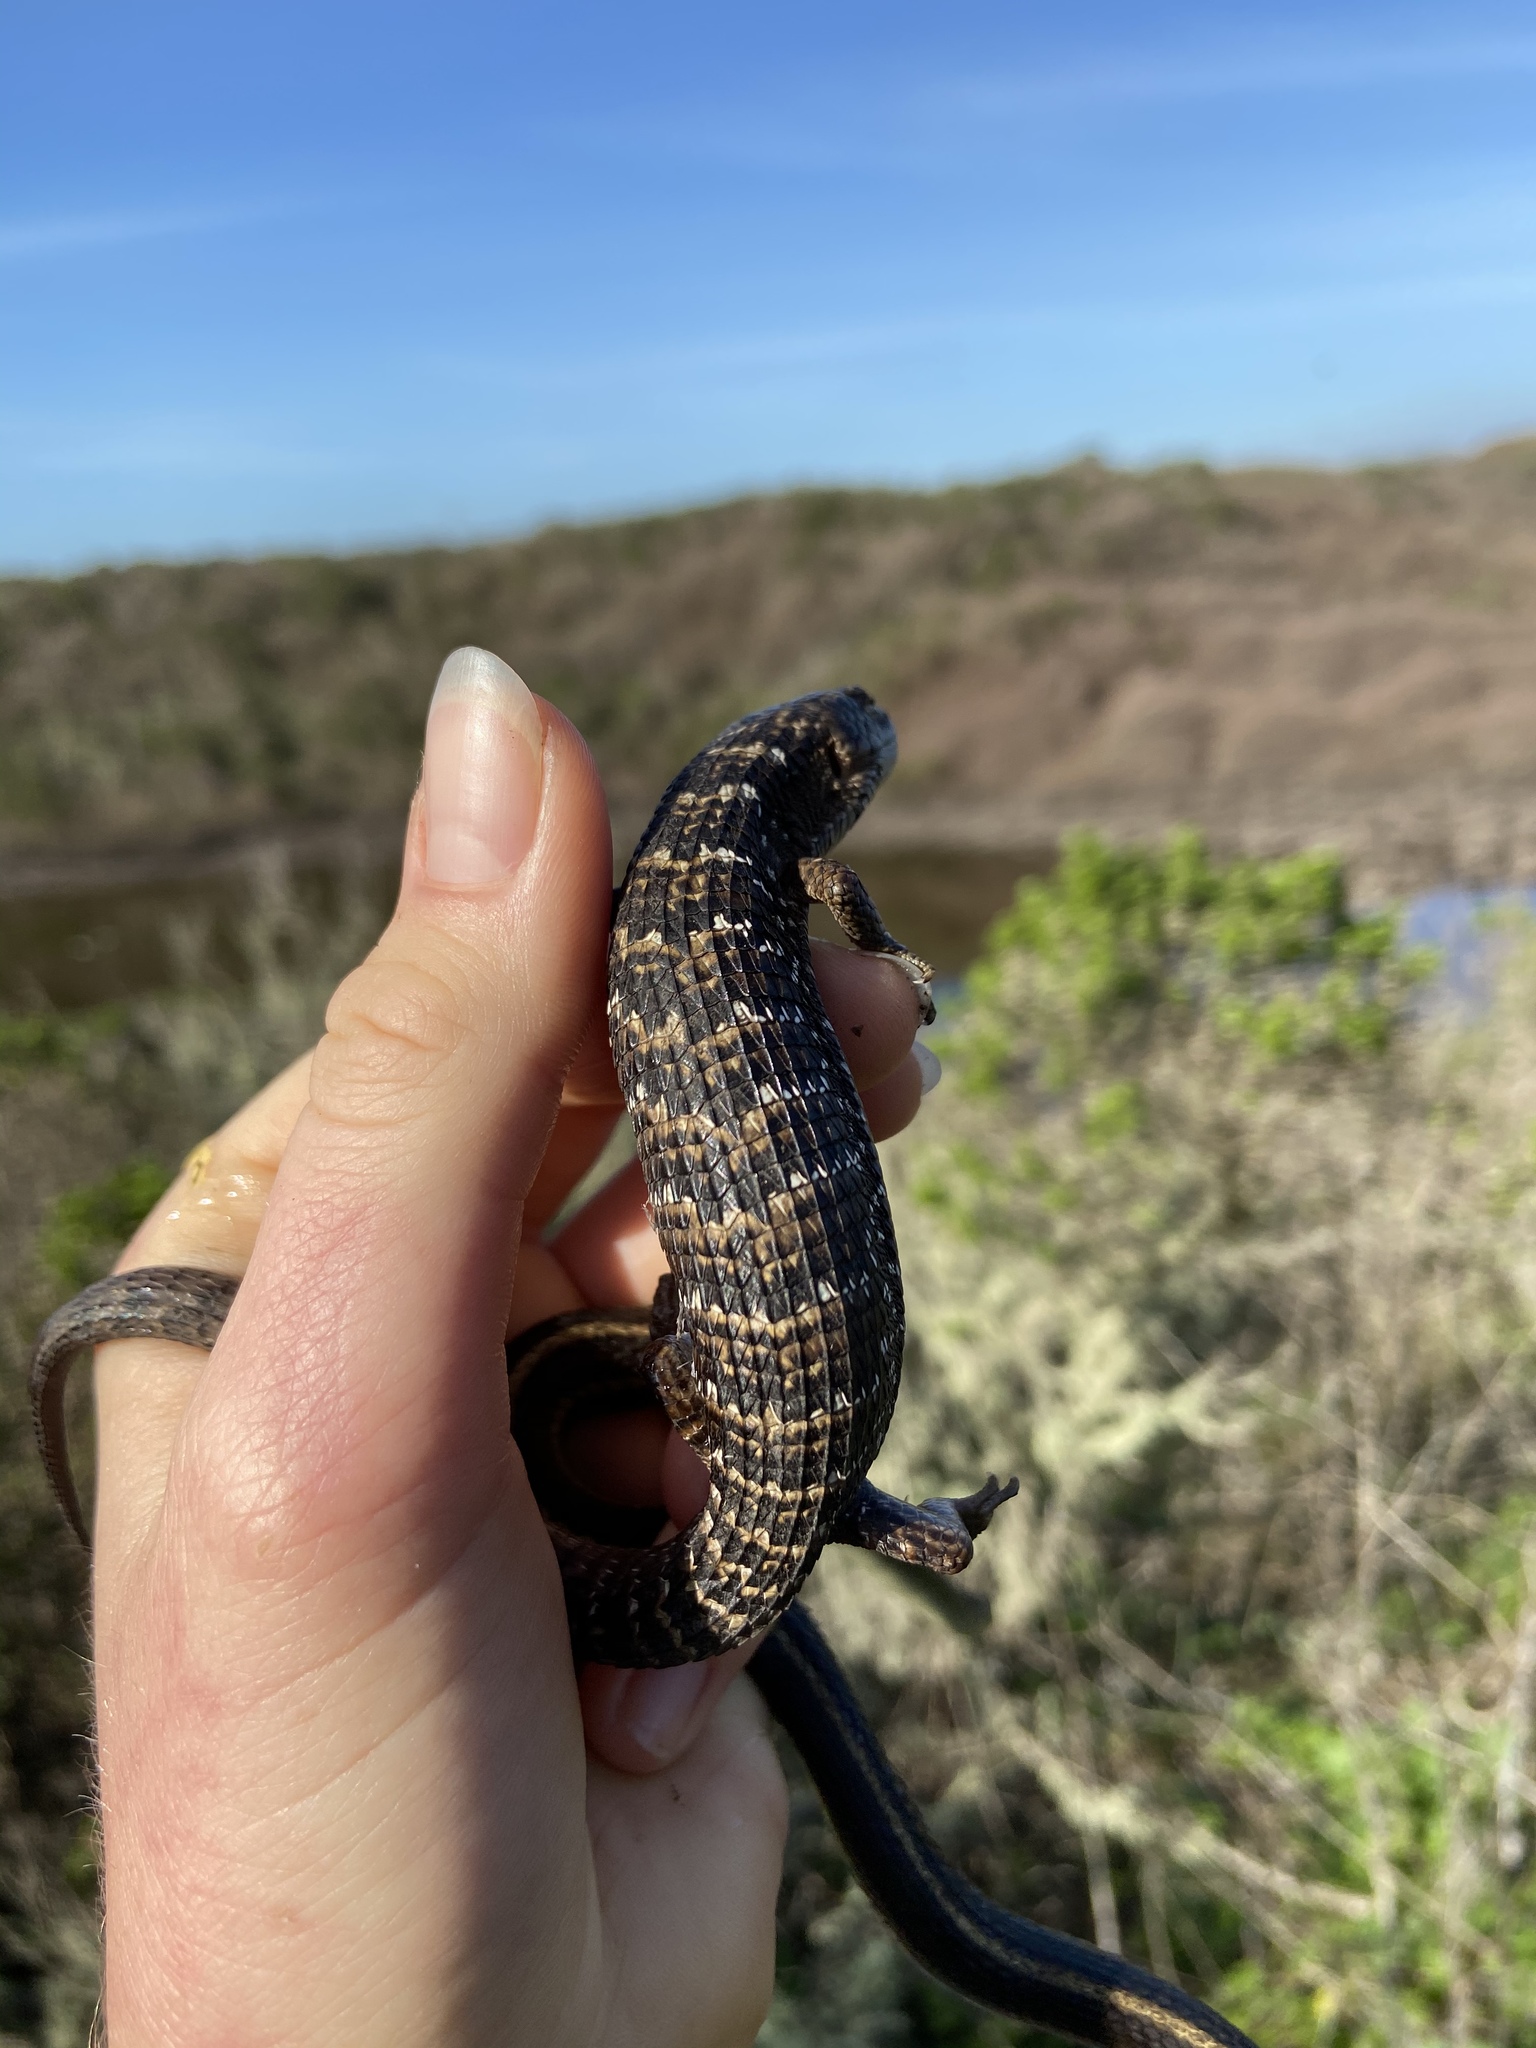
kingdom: Animalia
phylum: Chordata
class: Squamata
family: Anguidae
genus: Elgaria
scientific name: Elgaria multicarinata
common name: Southern alligator lizard
